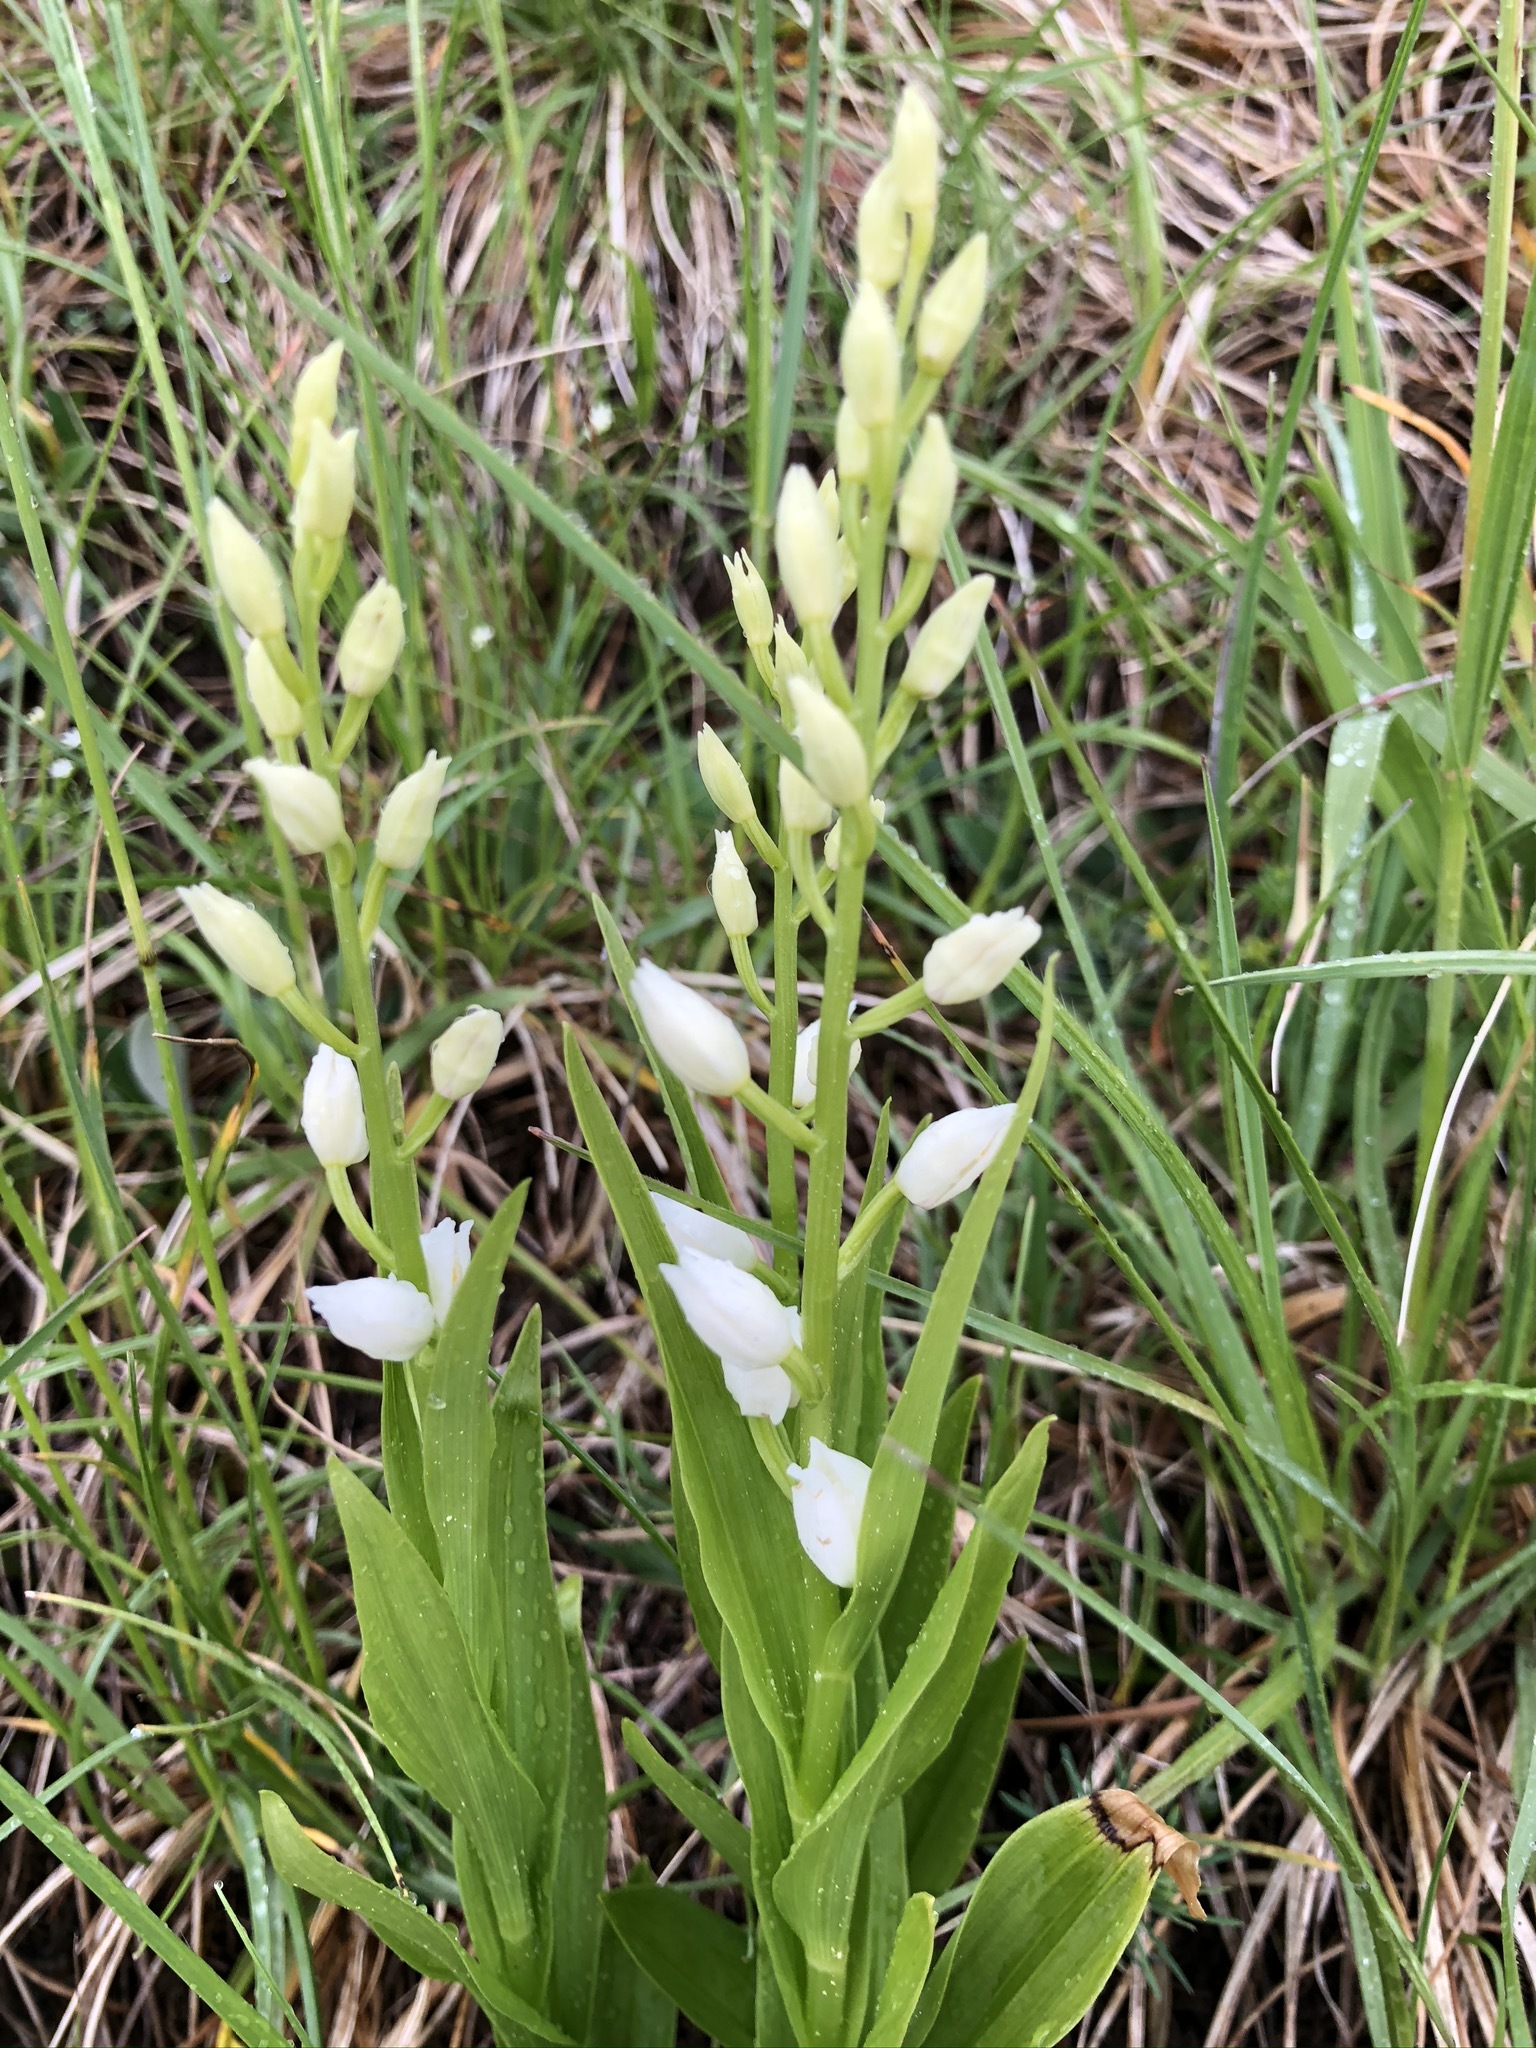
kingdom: Plantae
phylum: Tracheophyta
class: Liliopsida
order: Asparagales
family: Orchidaceae
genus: Cephalanthera
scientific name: Cephalanthera longifolia
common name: Narrow-leaved helleborine
